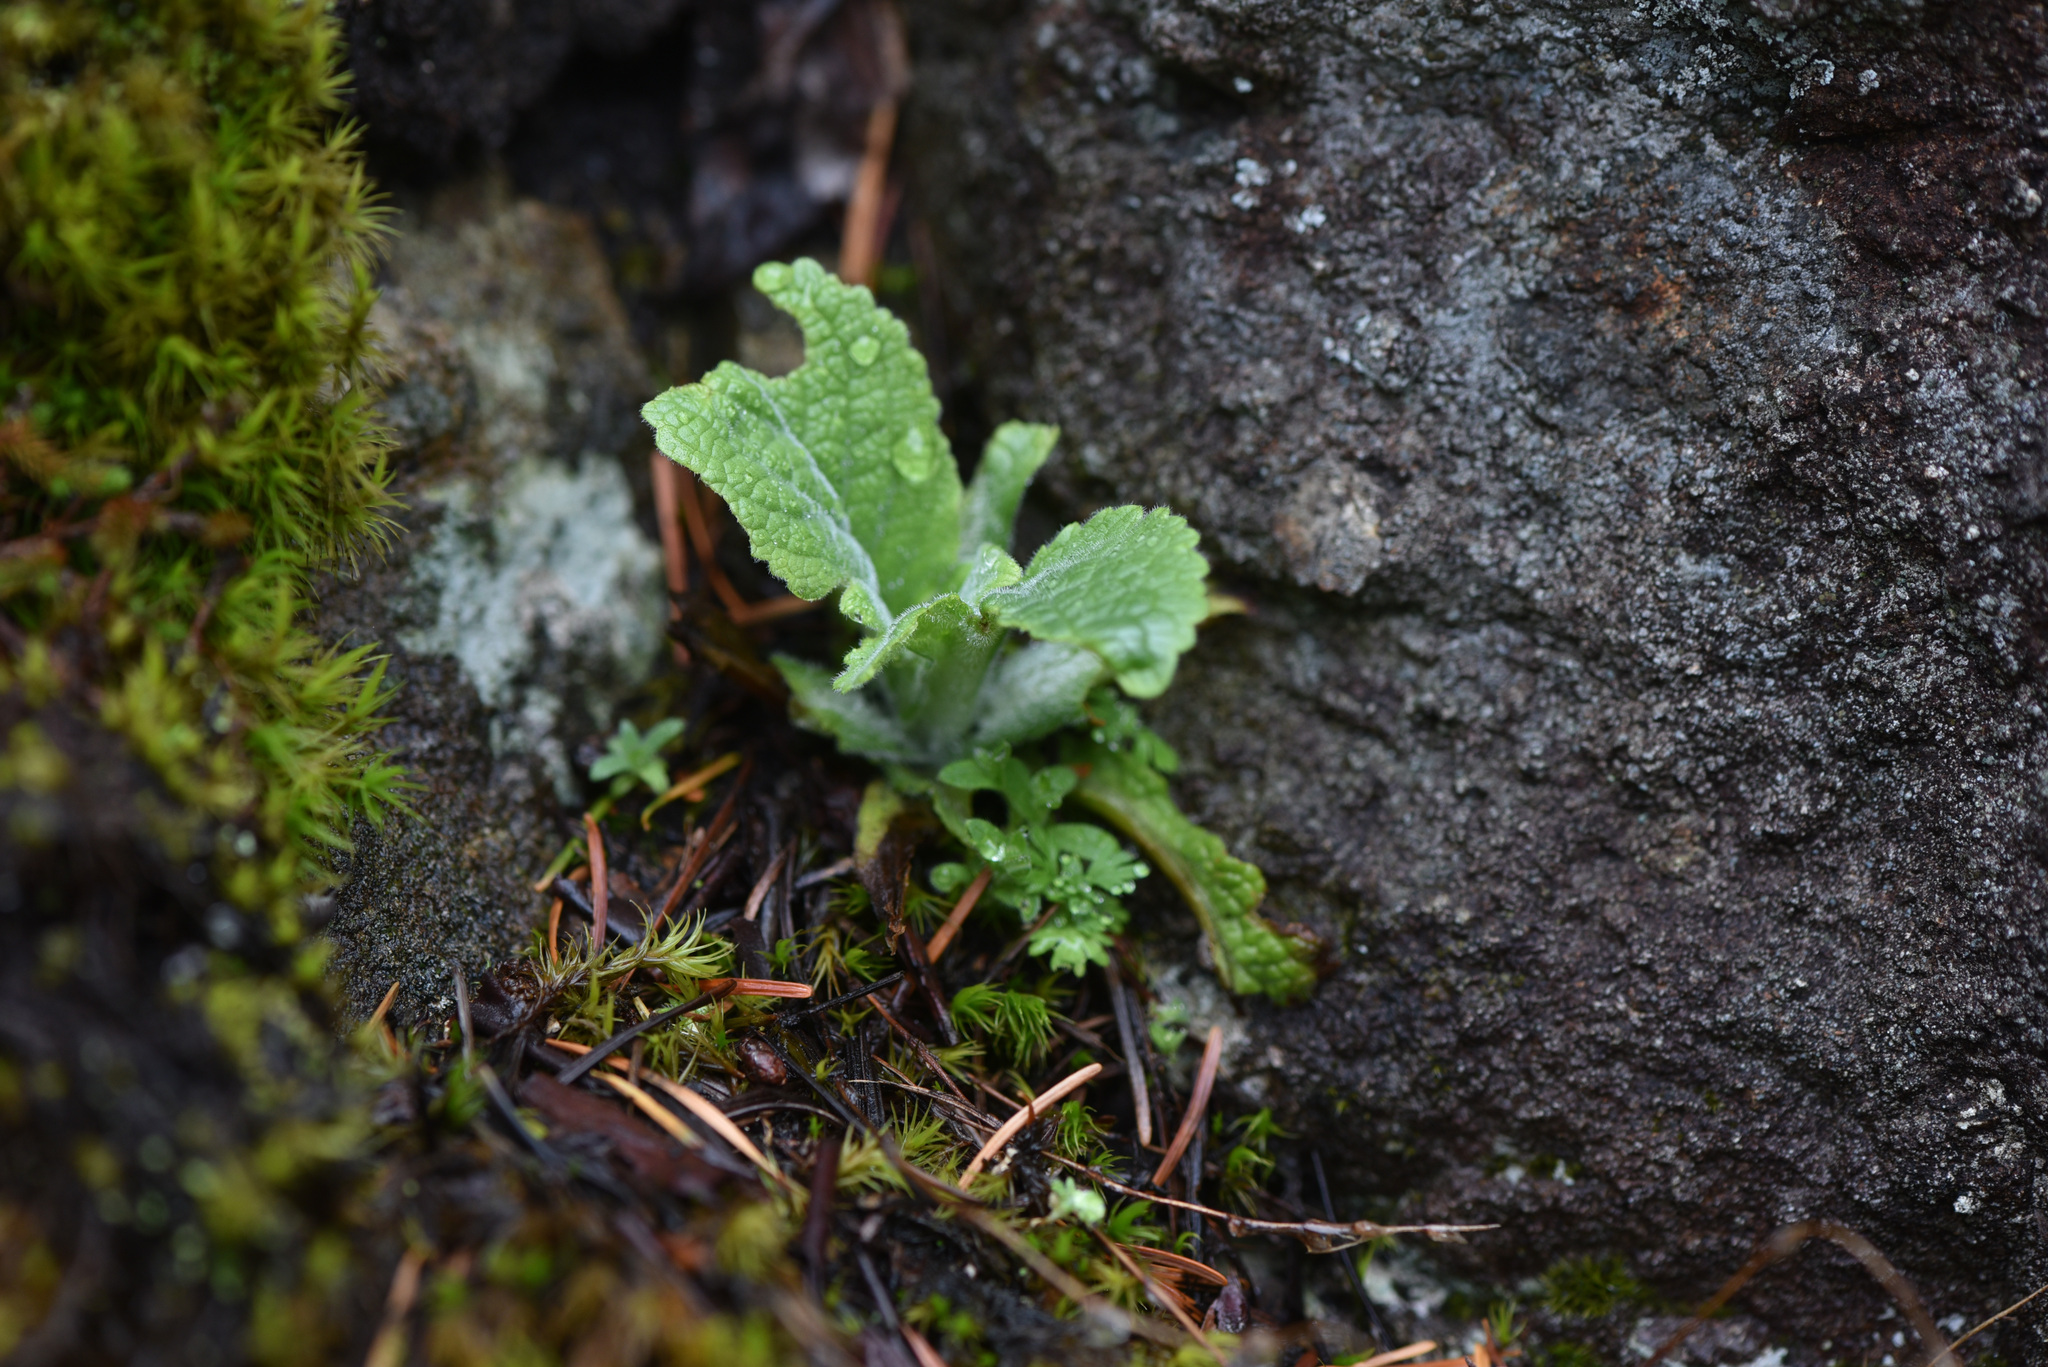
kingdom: Plantae
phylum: Tracheophyta
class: Magnoliopsida
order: Lamiales
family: Plantaginaceae
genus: Digitalis
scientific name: Digitalis purpurea
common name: Foxglove
